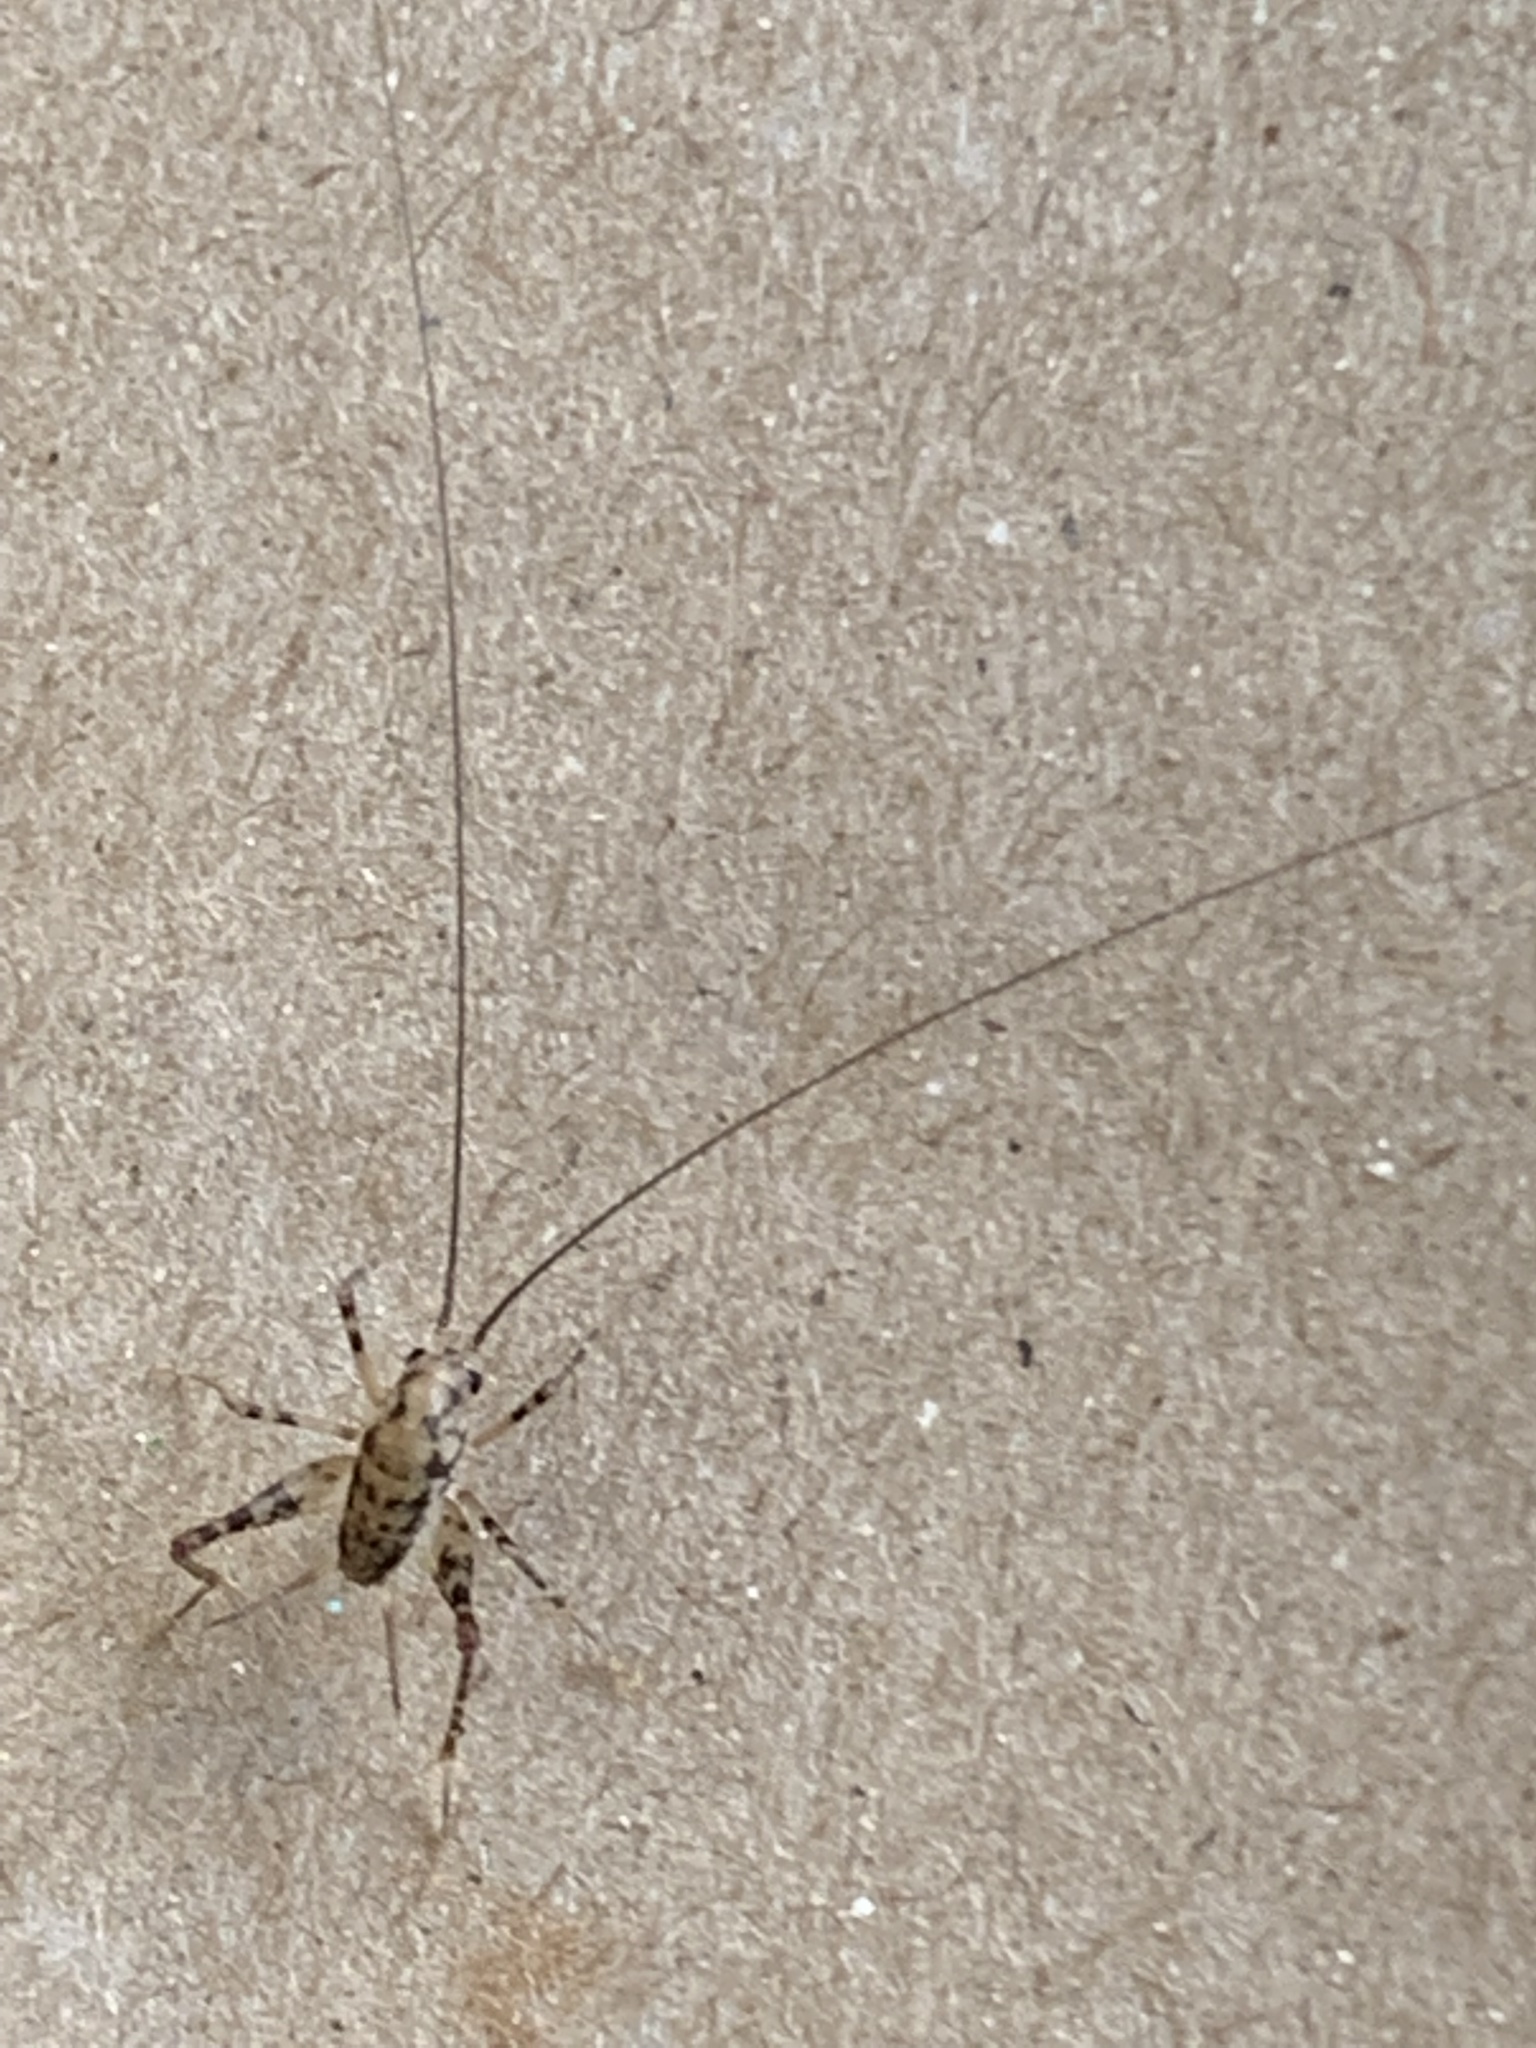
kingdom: Animalia
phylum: Arthropoda
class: Insecta
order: Orthoptera
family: Rhaphidophoridae
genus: Tachycines
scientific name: Tachycines asynamorus
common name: Greenhouse camel cricket
